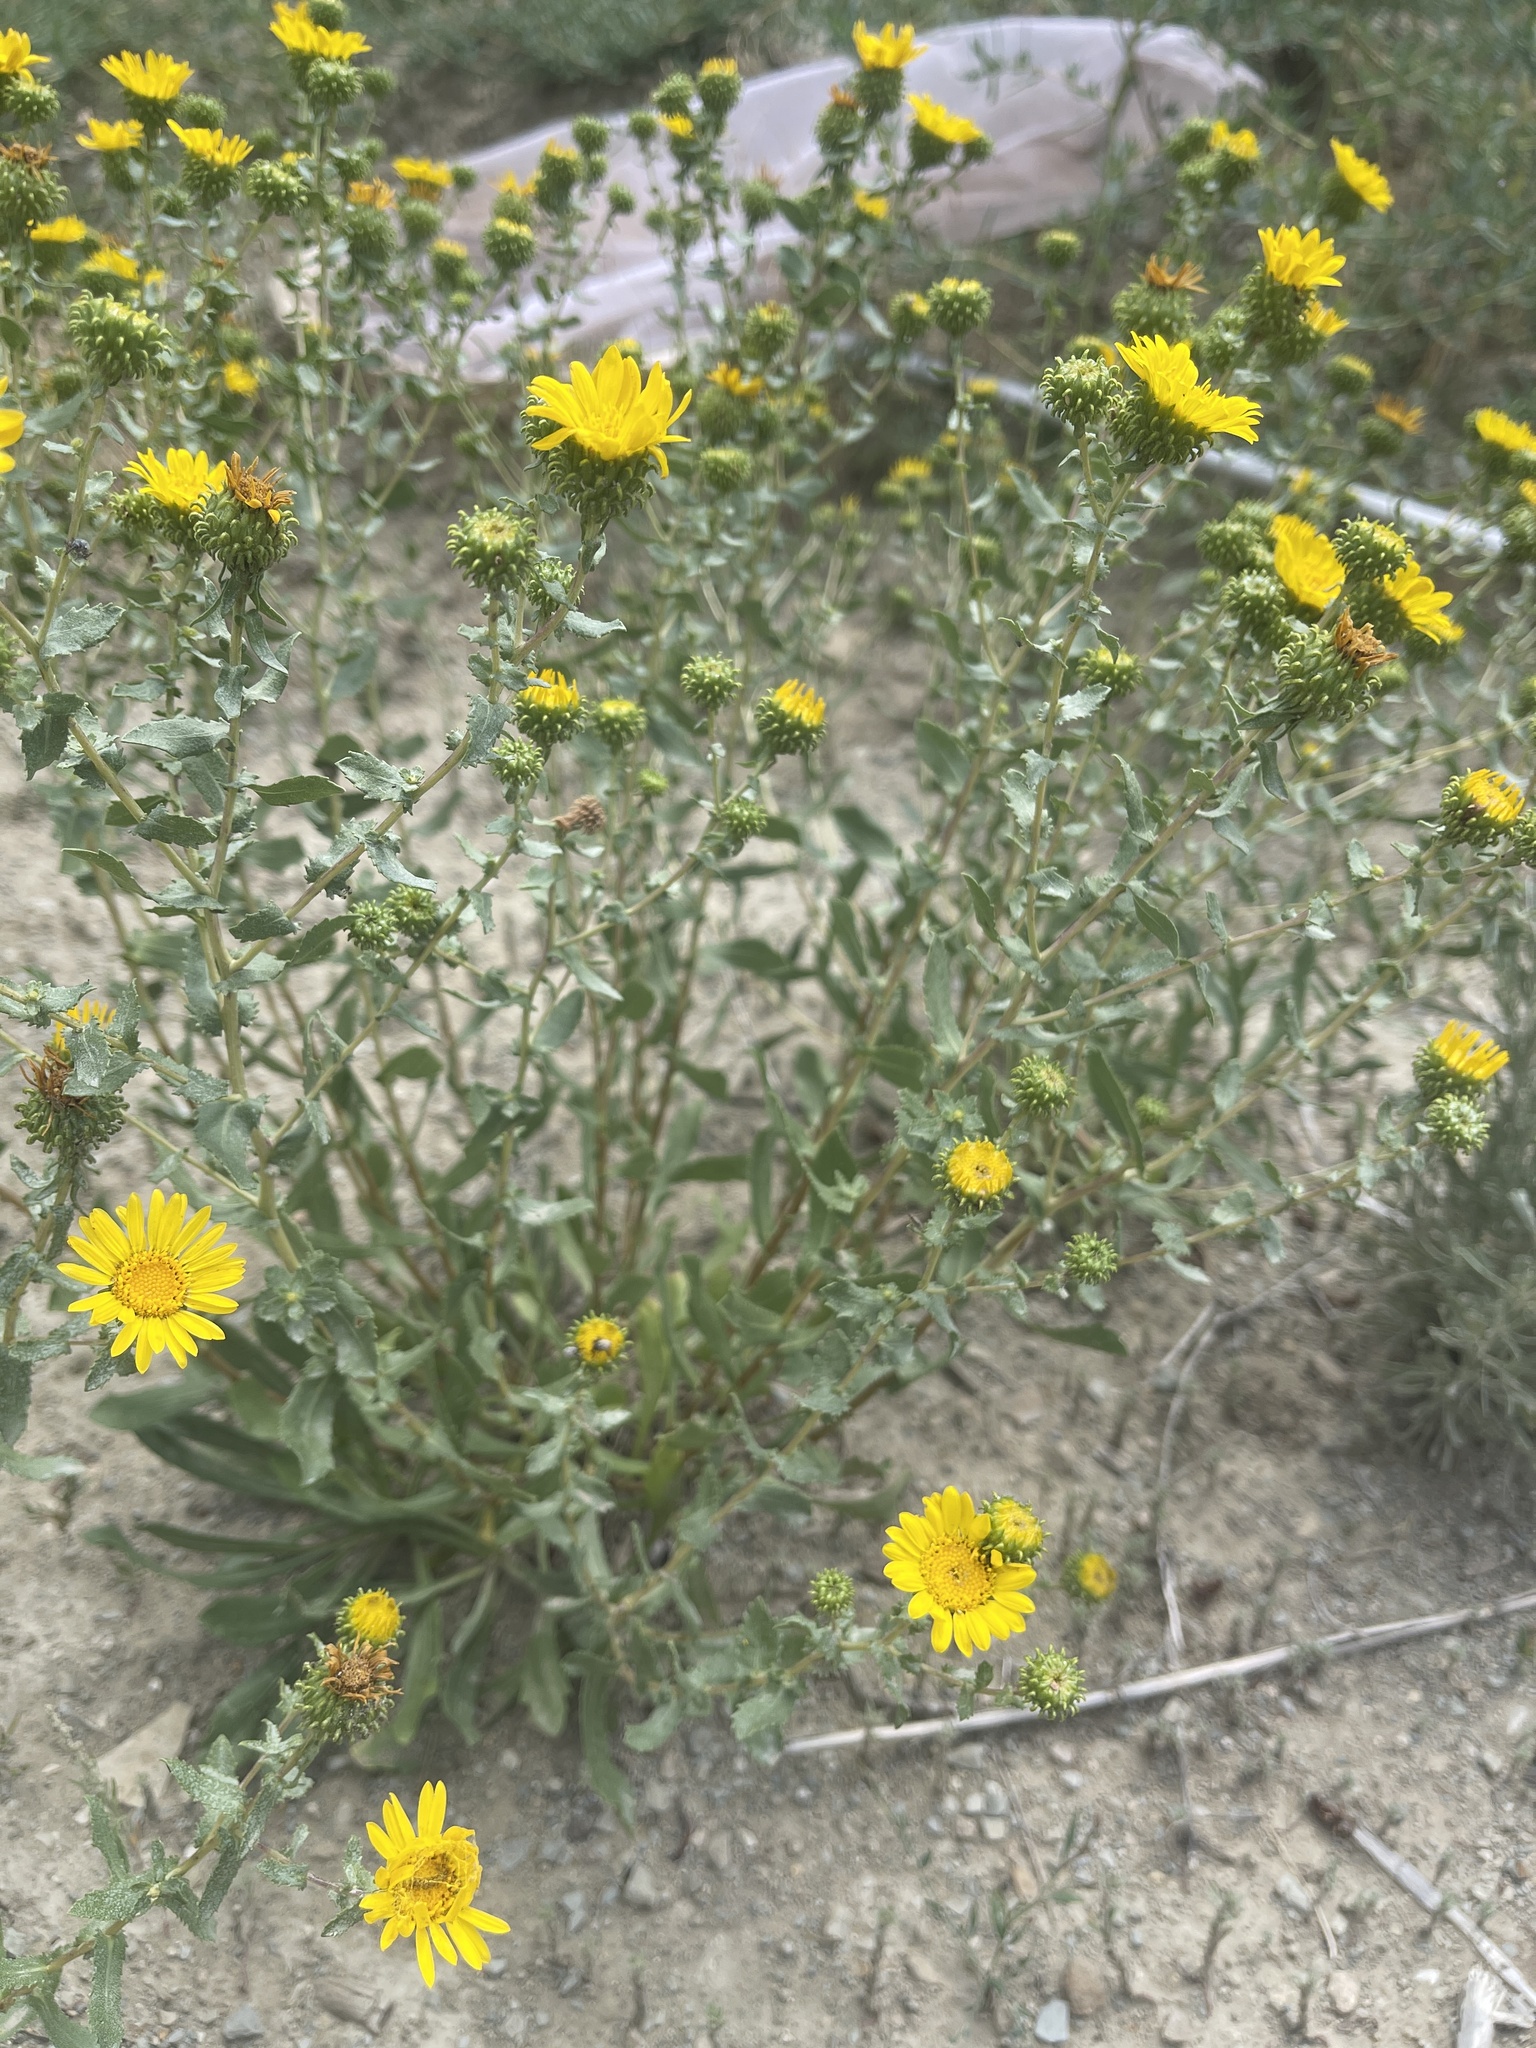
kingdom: Plantae
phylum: Tracheophyta
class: Magnoliopsida
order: Asterales
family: Asteraceae
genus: Grindelia
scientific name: Grindelia squarrosa
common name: Curly-cup gumweed
